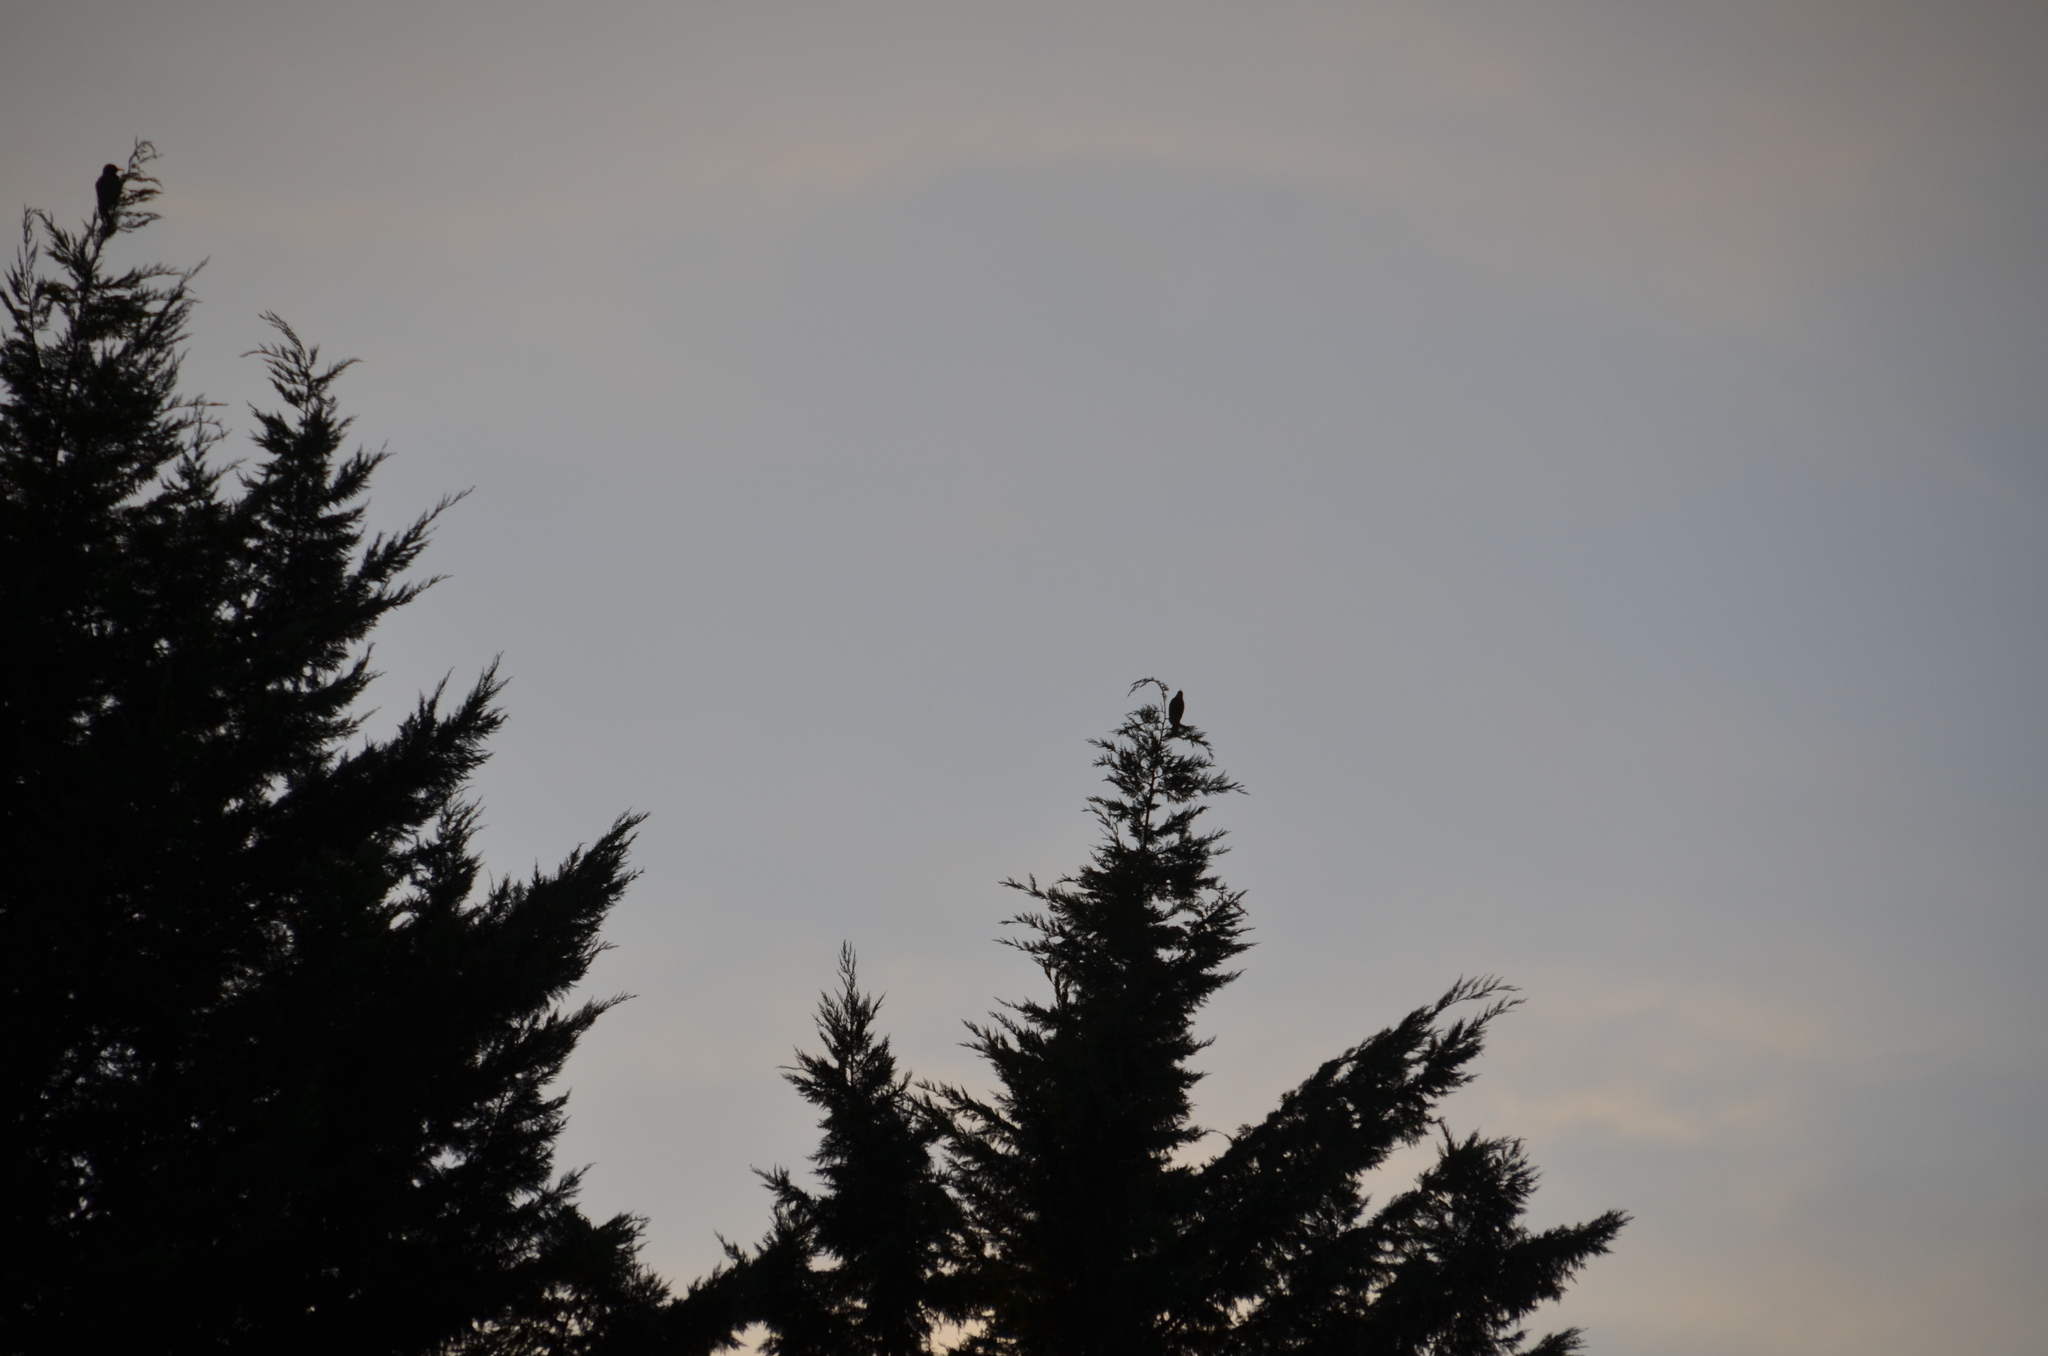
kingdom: Animalia
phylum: Chordata
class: Aves
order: Passeriformes
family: Turdidae
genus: Turdus
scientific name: Turdus migratorius
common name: American robin
